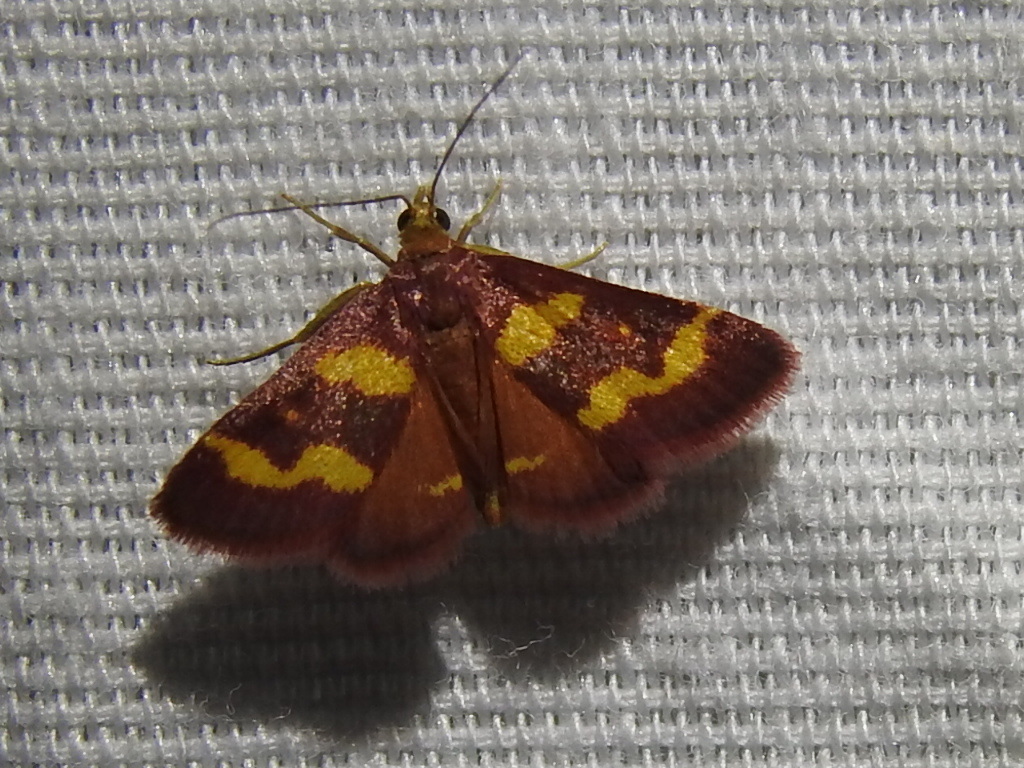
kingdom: Animalia
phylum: Arthropoda
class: Insecta
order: Lepidoptera
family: Crambidae
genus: Pyrausta
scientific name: Pyrausta tyralis
